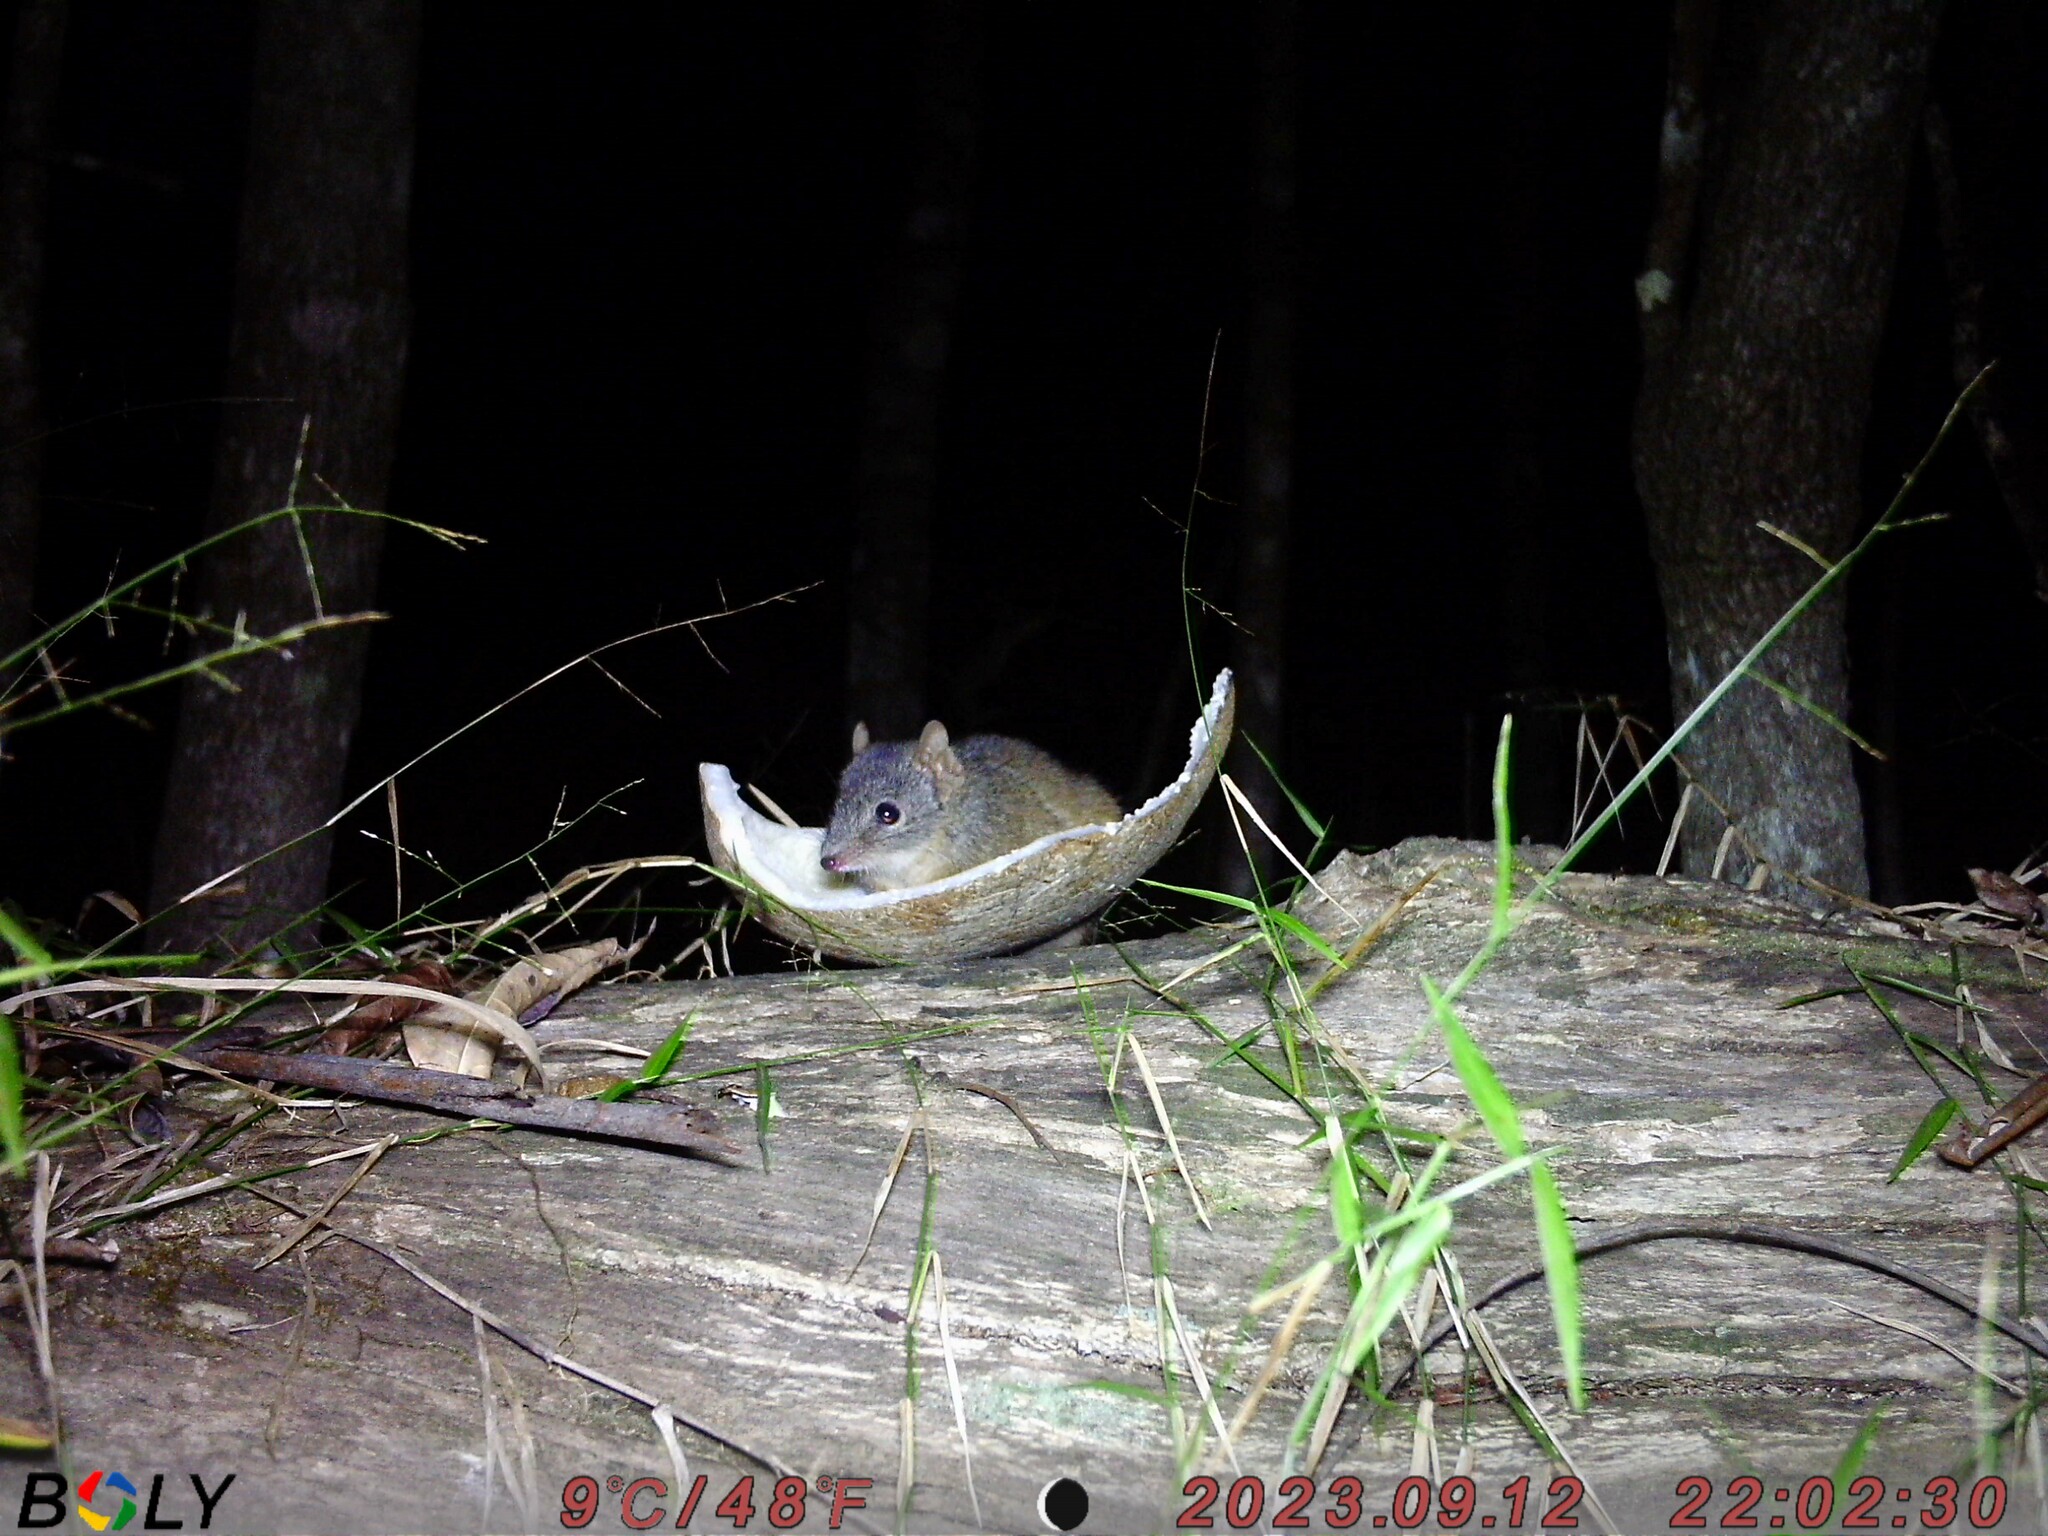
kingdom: Animalia
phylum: Chordata
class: Mammalia
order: Dasyuromorphia
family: Dasyuridae
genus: Antechinus
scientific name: Antechinus flavipes
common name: Yellow-footed antechinus
